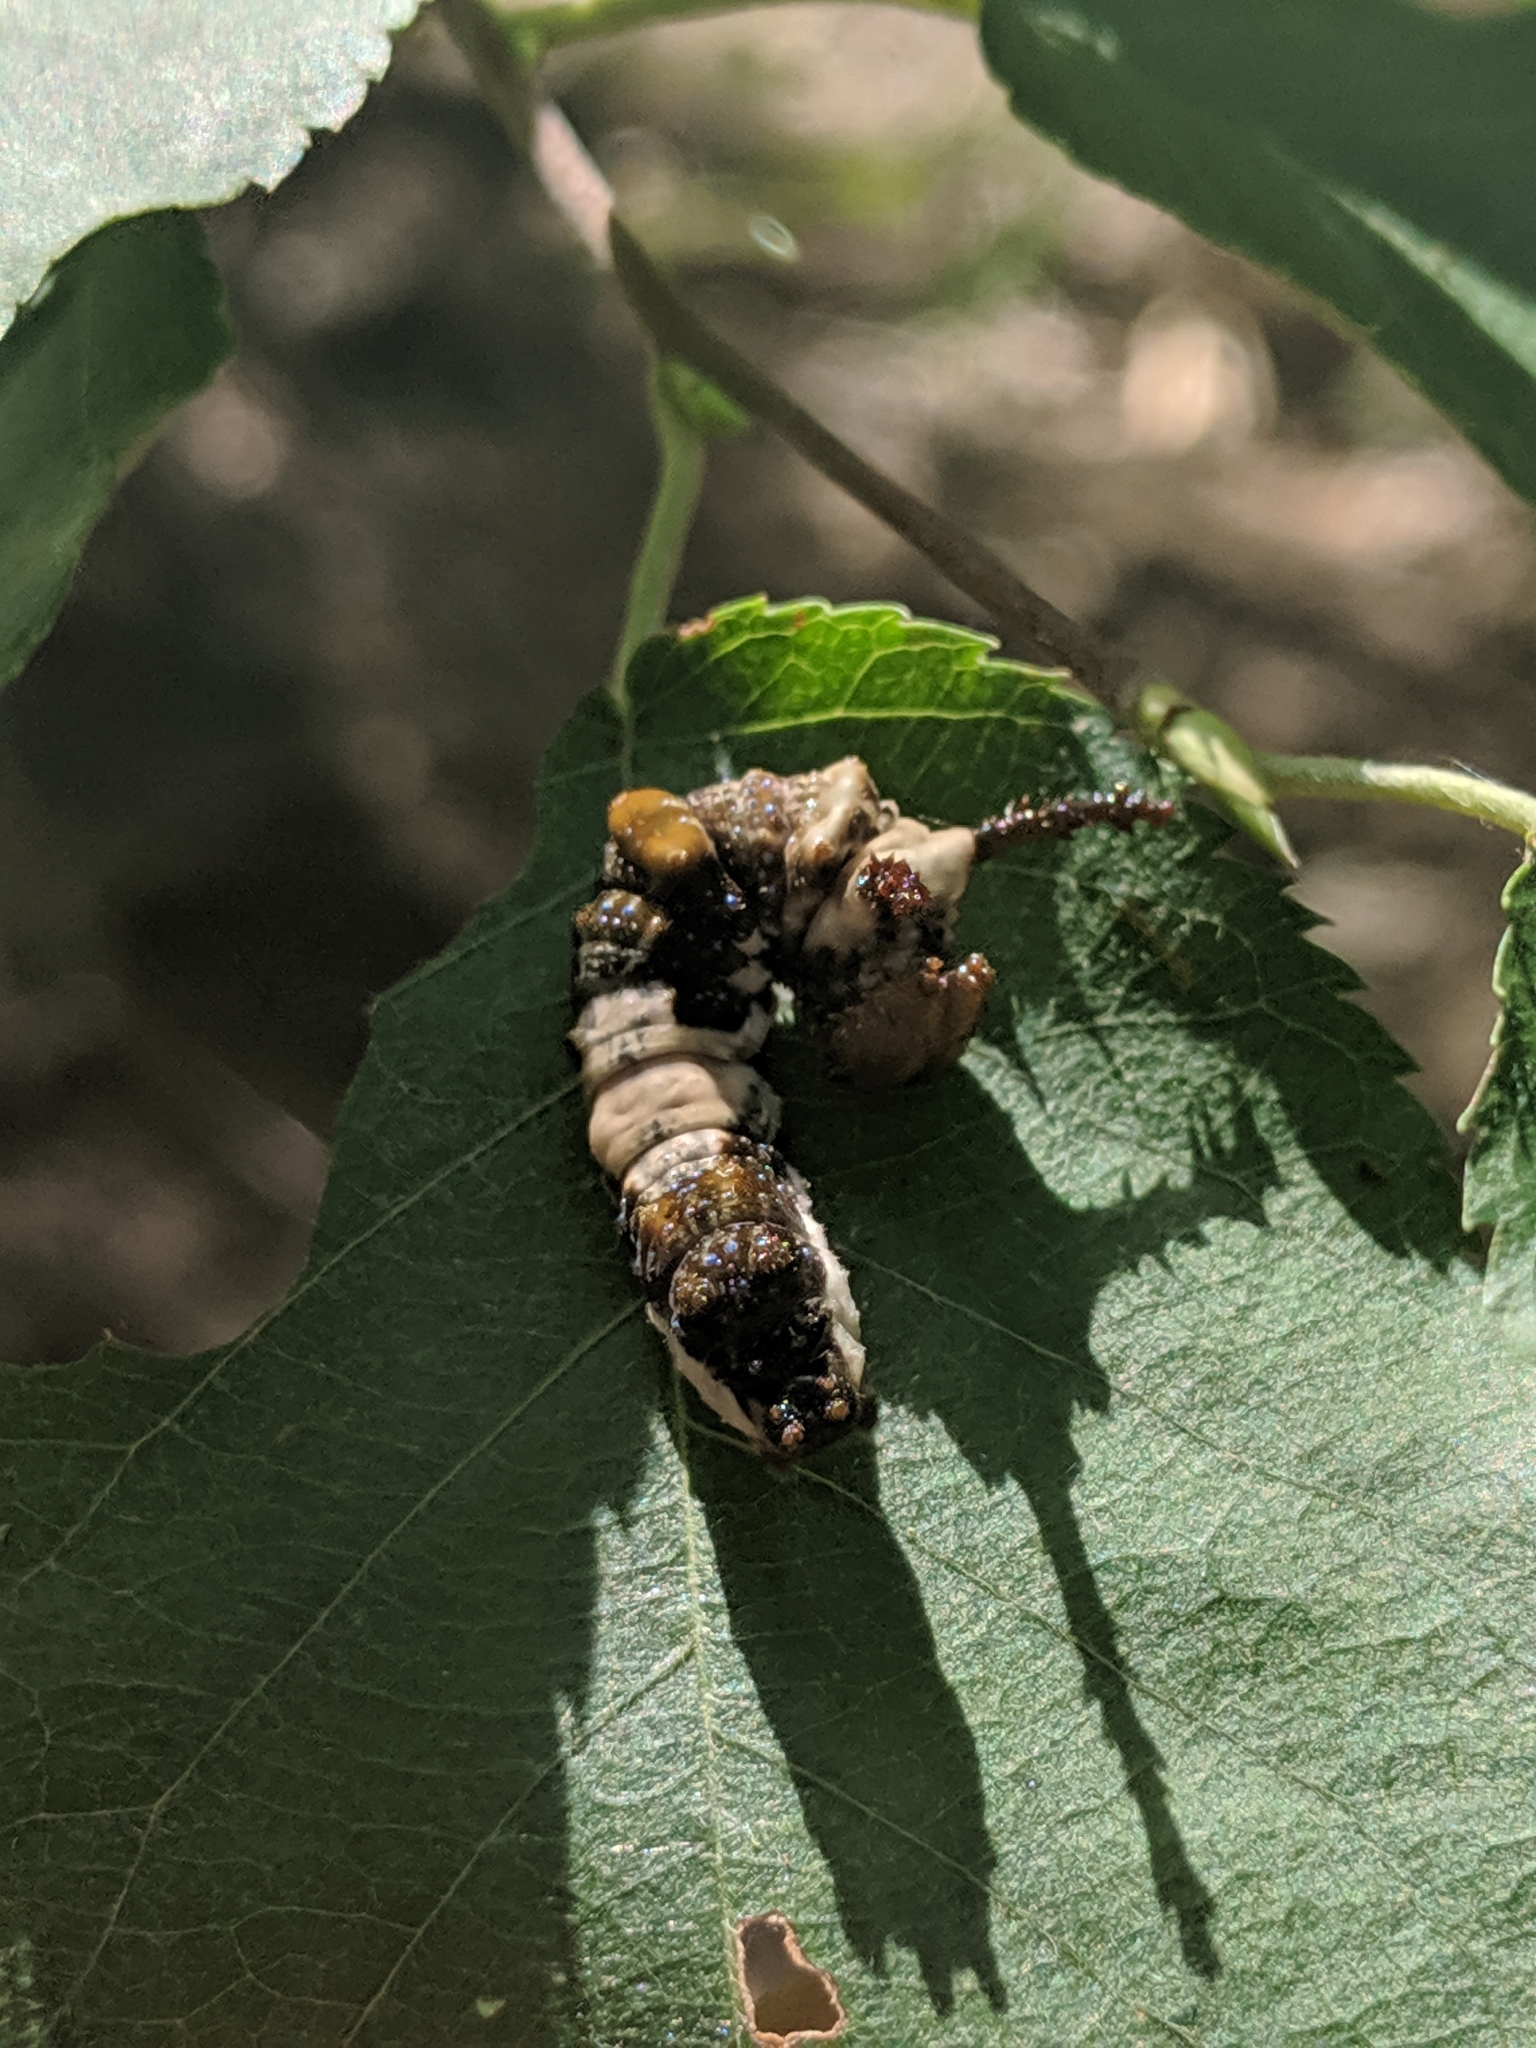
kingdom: Animalia
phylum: Arthropoda
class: Insecta
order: Lepidoptera
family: Nymphalidae
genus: Limenitis
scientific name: Limenitis archippus
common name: Viceroy
